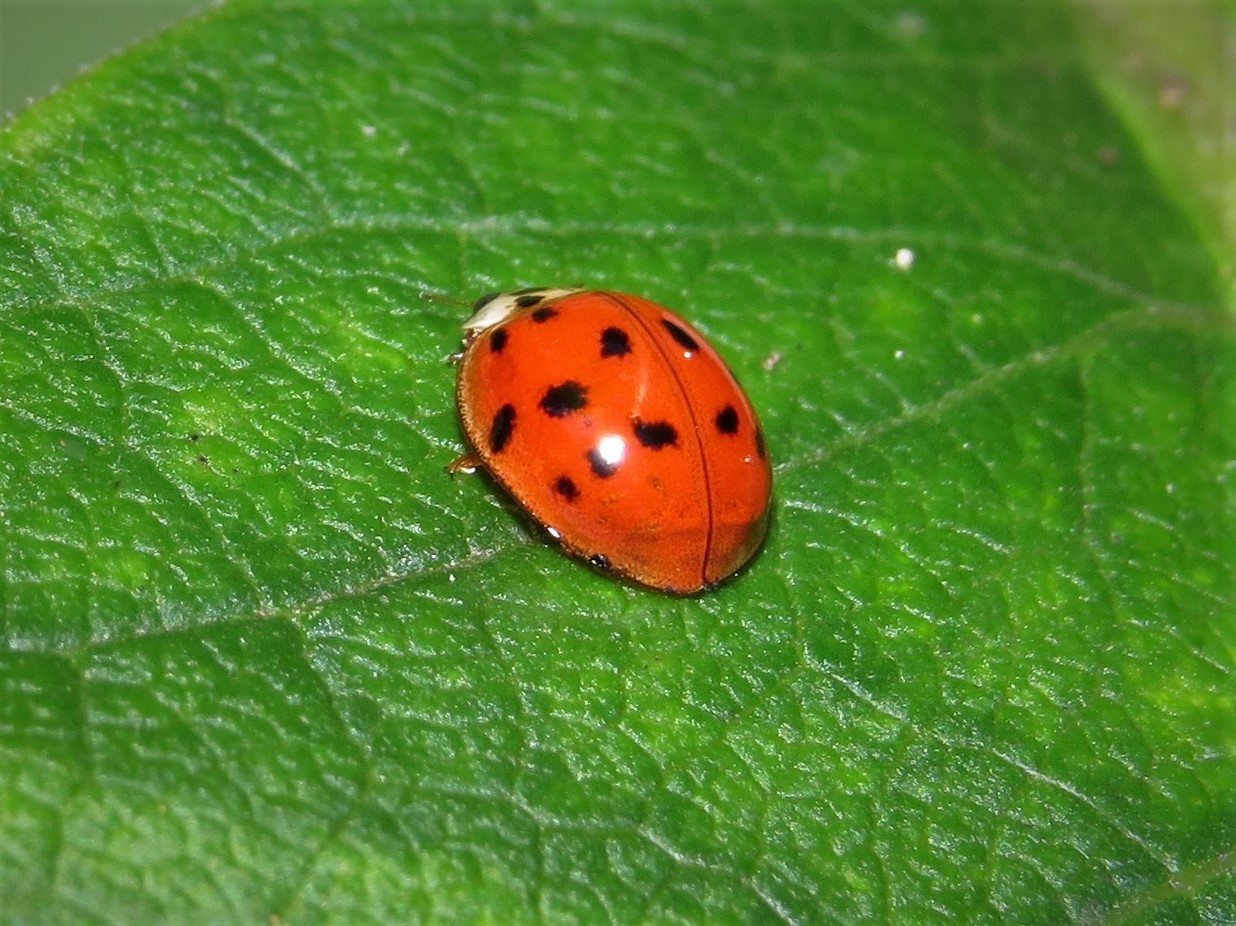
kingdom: Animalia
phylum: Arthropoda
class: Insecta
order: Coleoptera
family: Coccinellidae
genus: Harmonia
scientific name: Harmonia axyridis
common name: Harlequin ladybird
